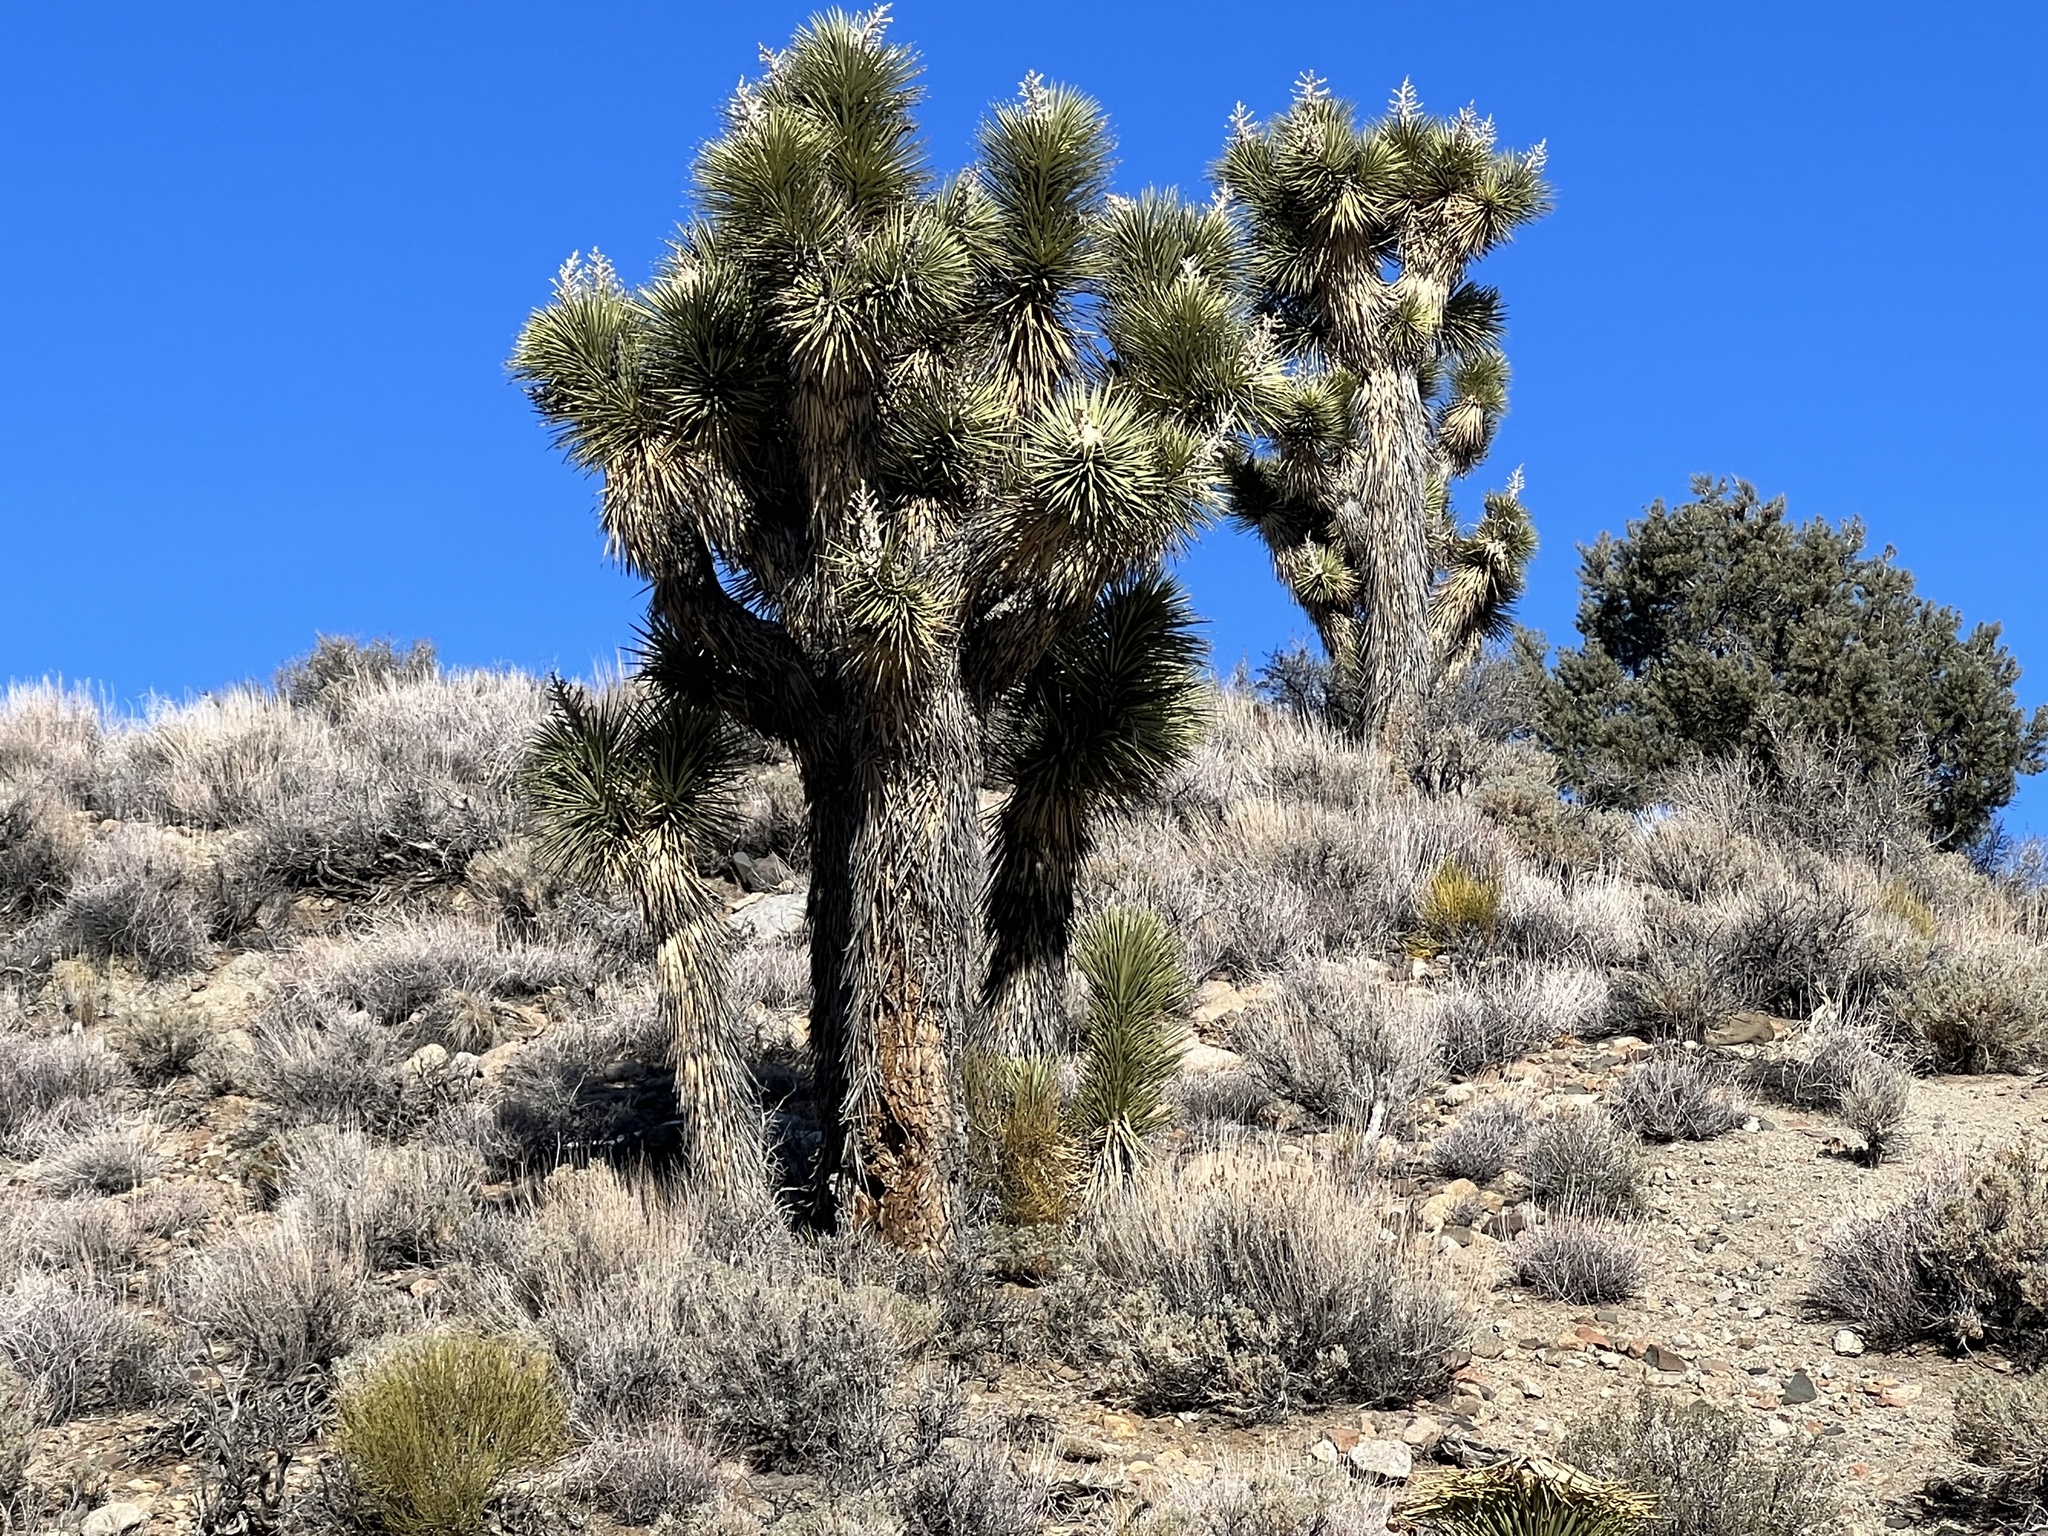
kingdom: Plantae
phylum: Tracheophyta
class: Liliopsida
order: Asparagales
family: Asparagaceae
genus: Yucca
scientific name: Yucca brevifolia
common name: Joshua tree
